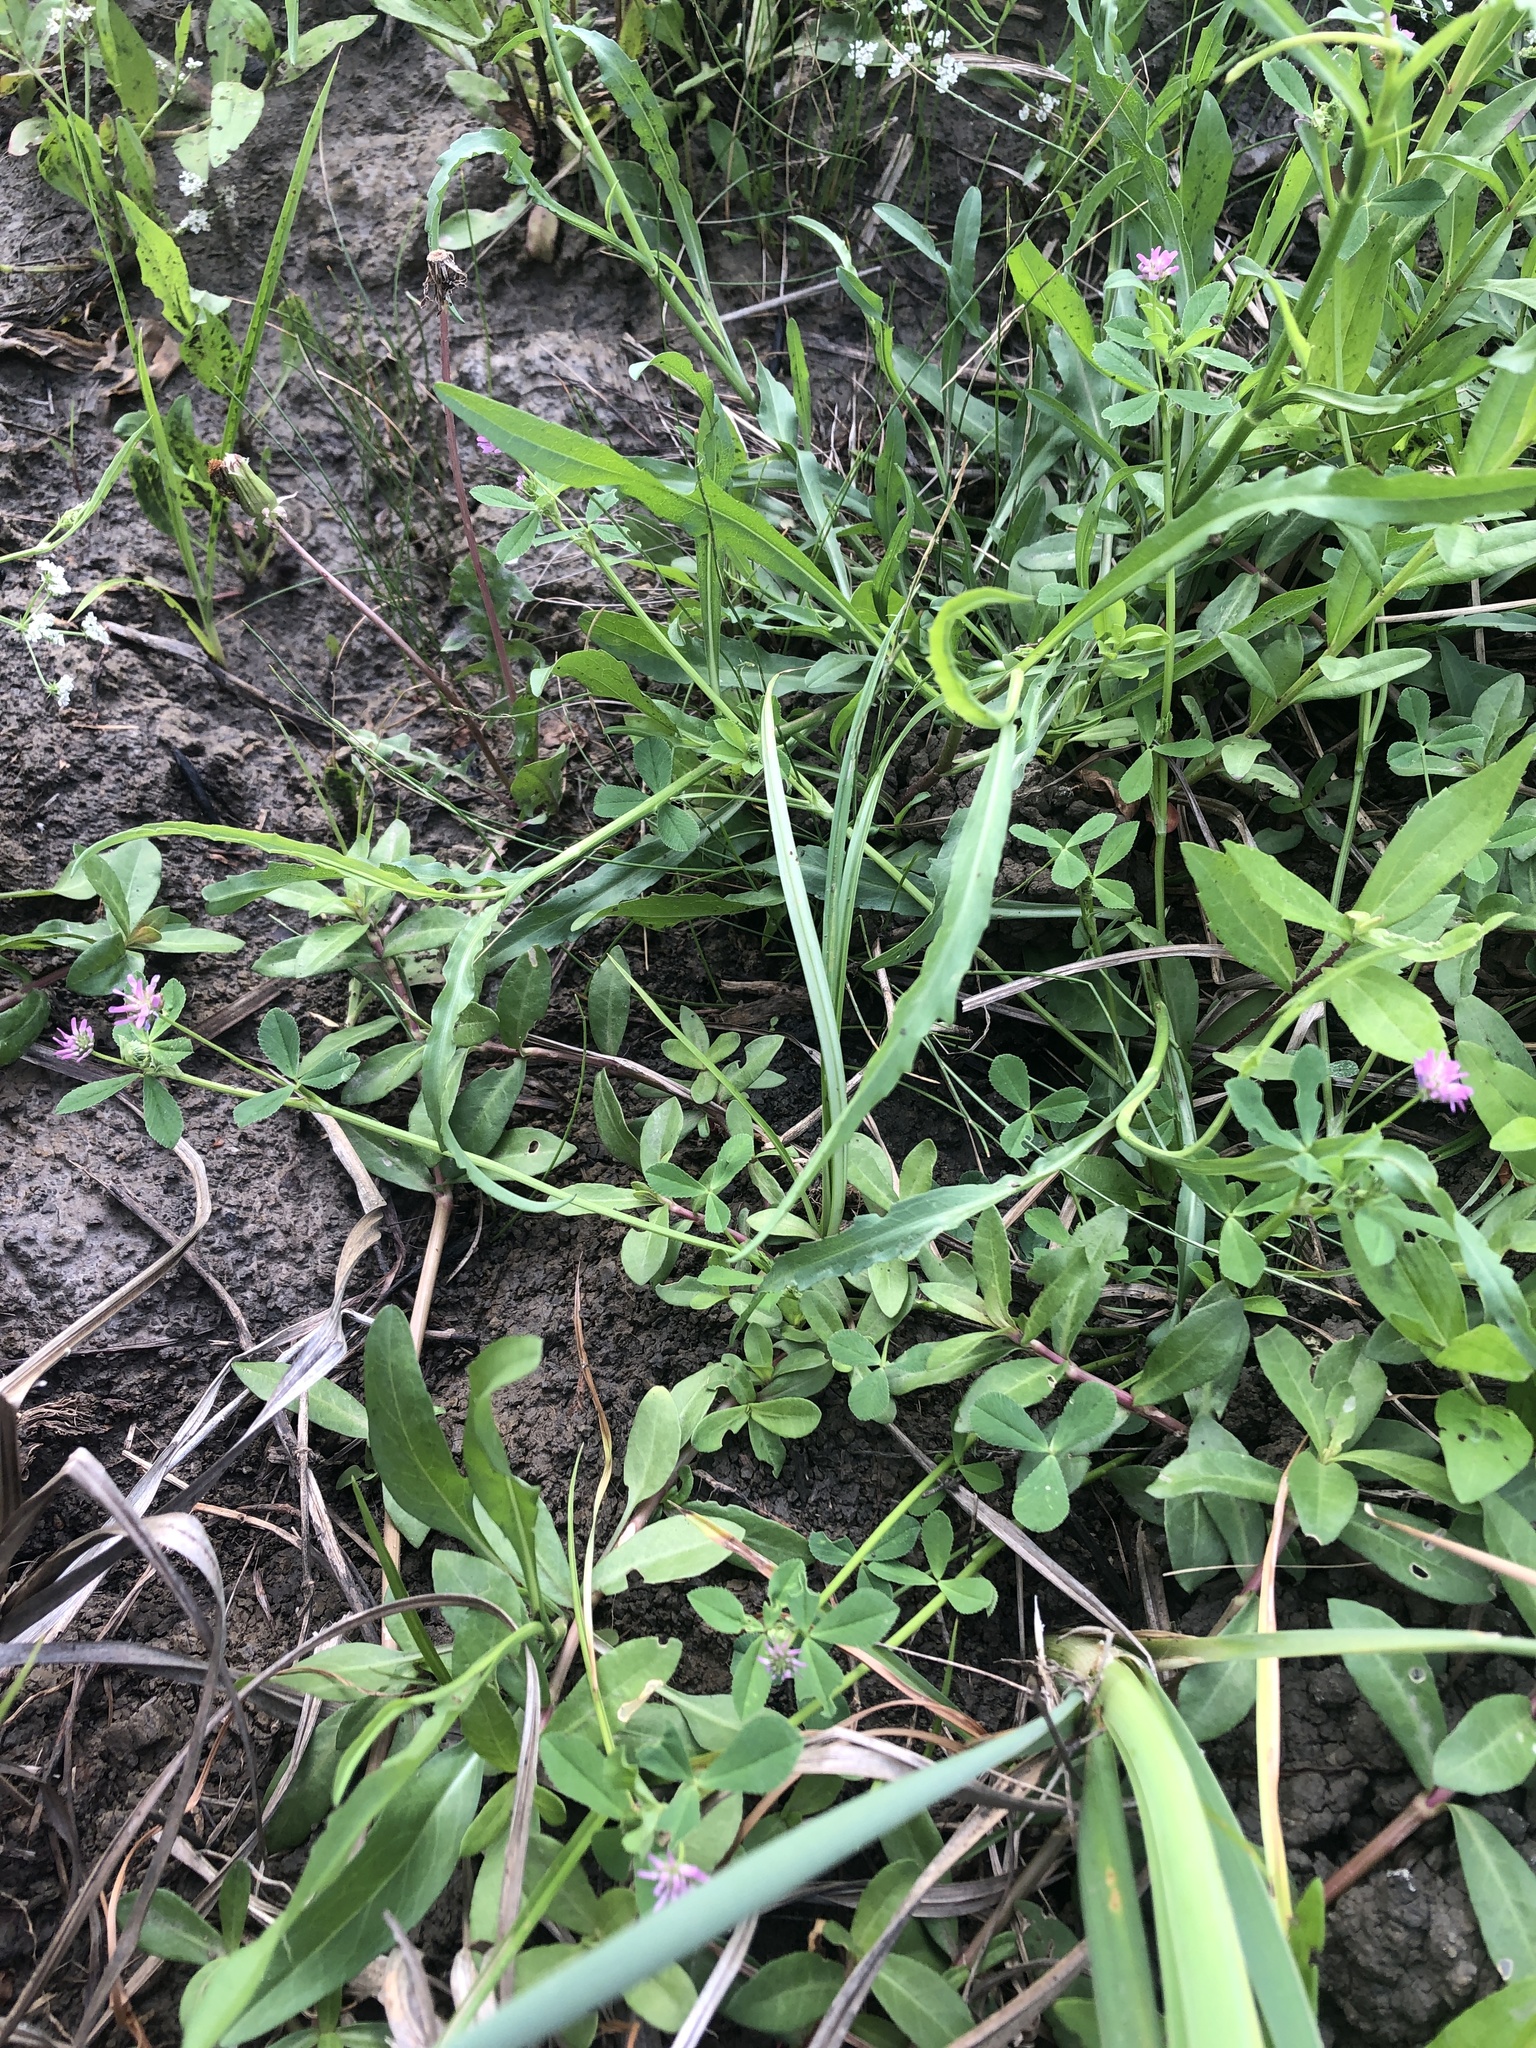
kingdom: Plantae
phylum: Tracheophyta
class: Magnoliopsida
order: Fabales
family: Fabaceae
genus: Trifolium
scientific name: Trifolium resupinatum
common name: Reversed clover
